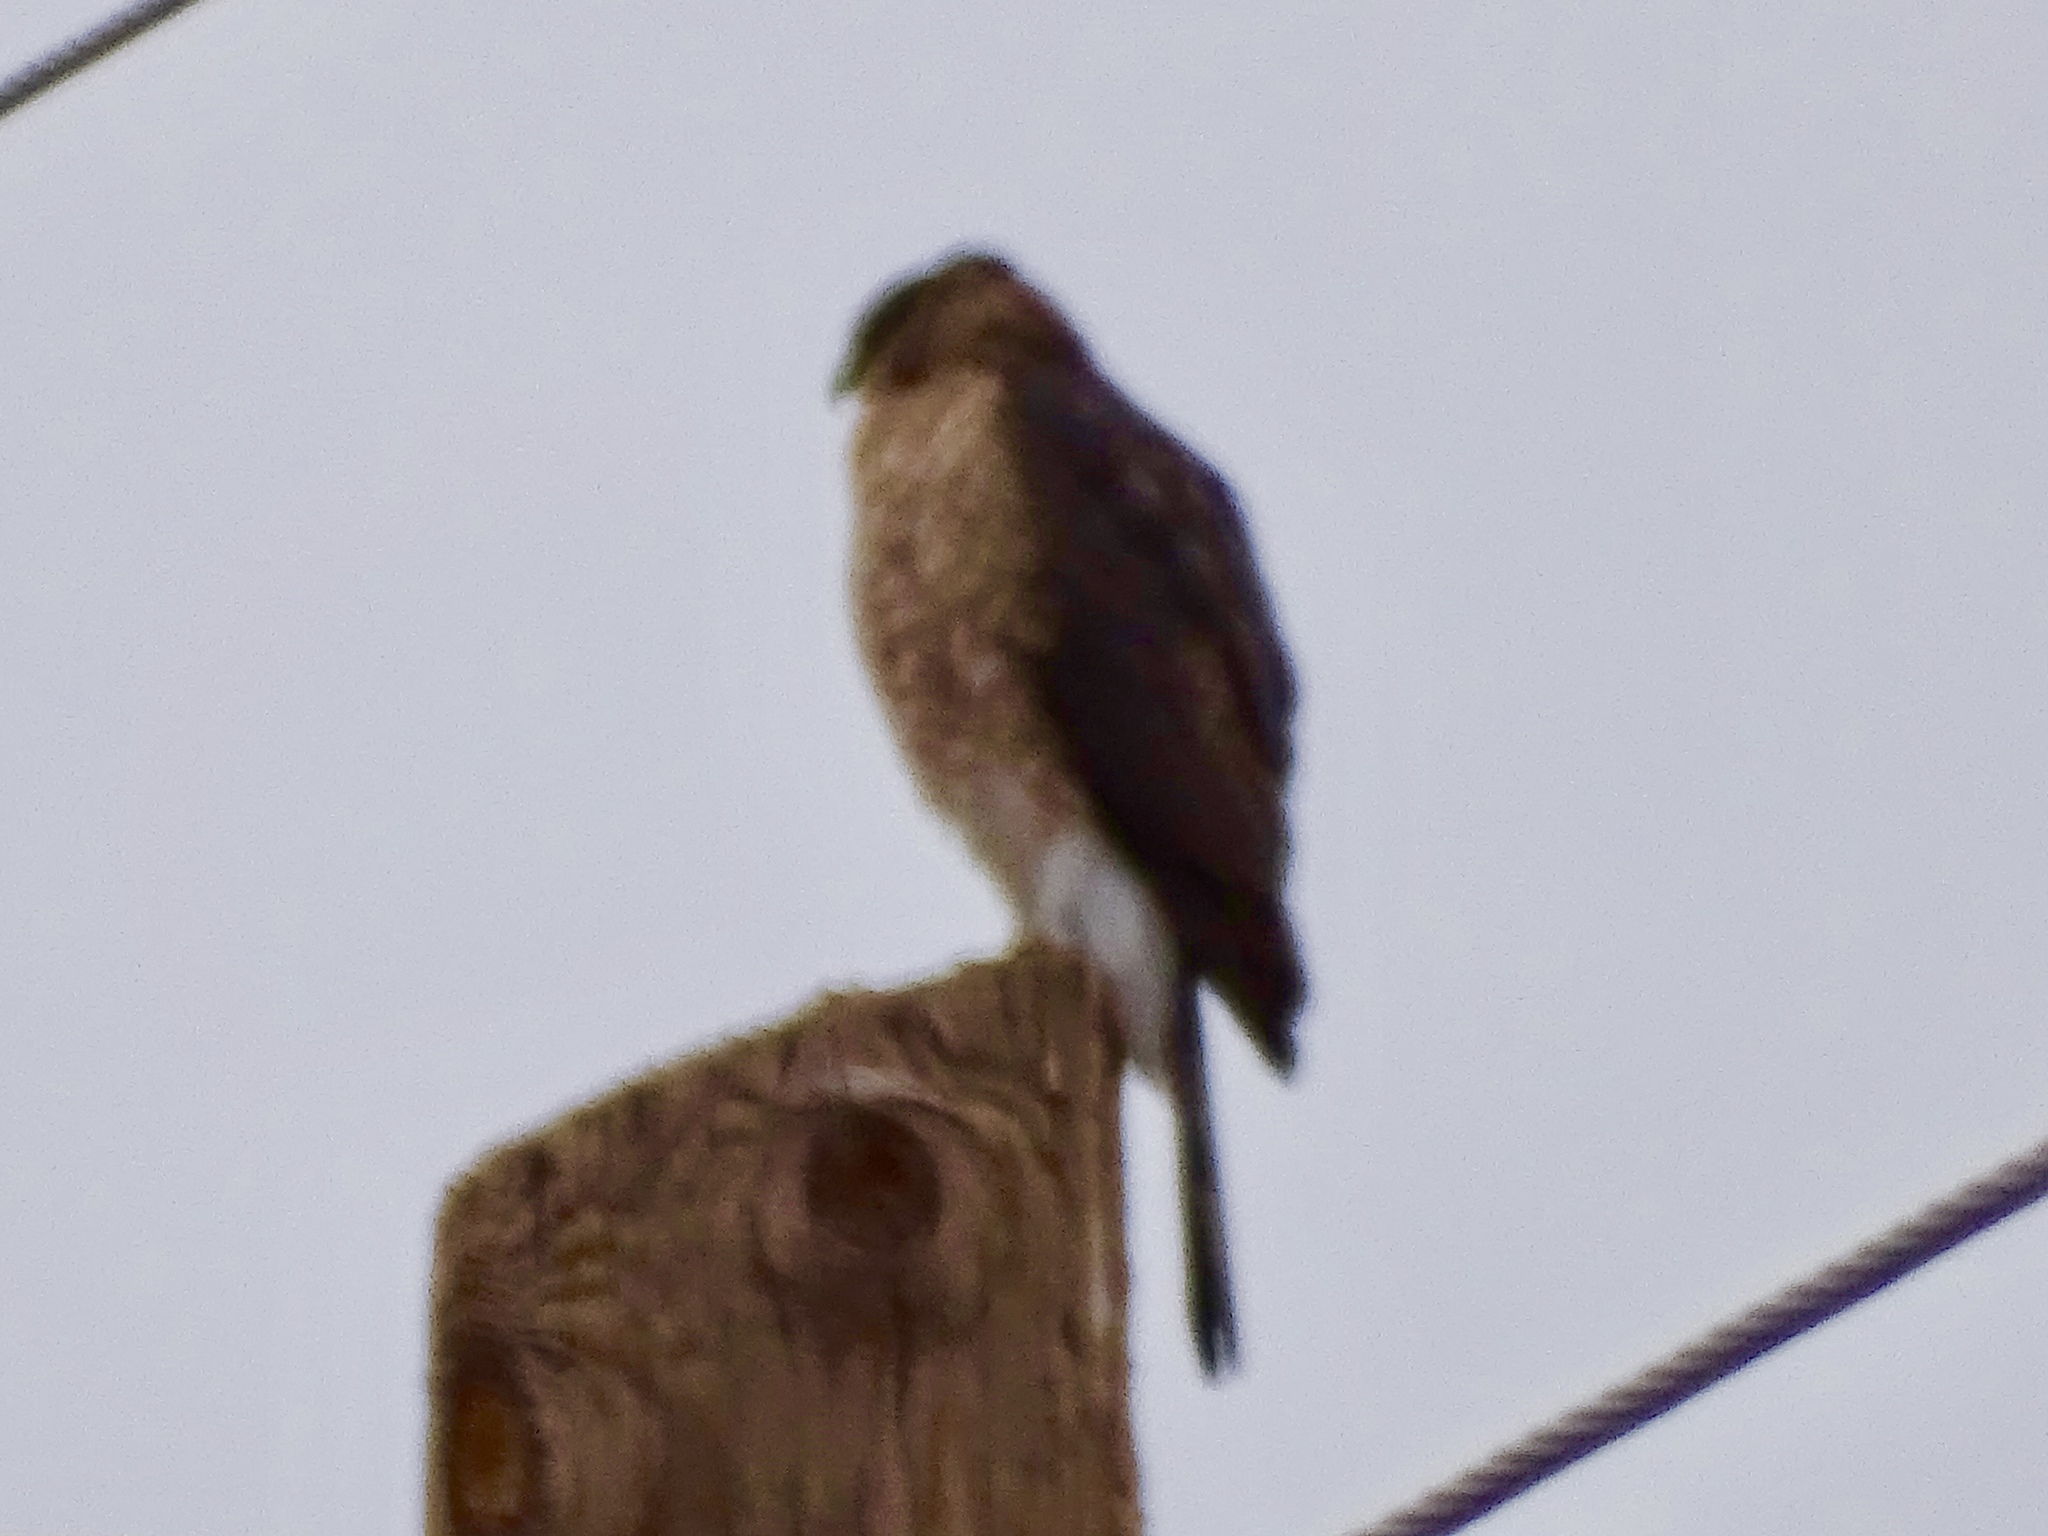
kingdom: Animalia
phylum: Chordata
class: Aves
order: Accipitriformes
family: Accipitridae
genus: Accipiter
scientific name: Accipiter cooperii
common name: Cooper's hawk
